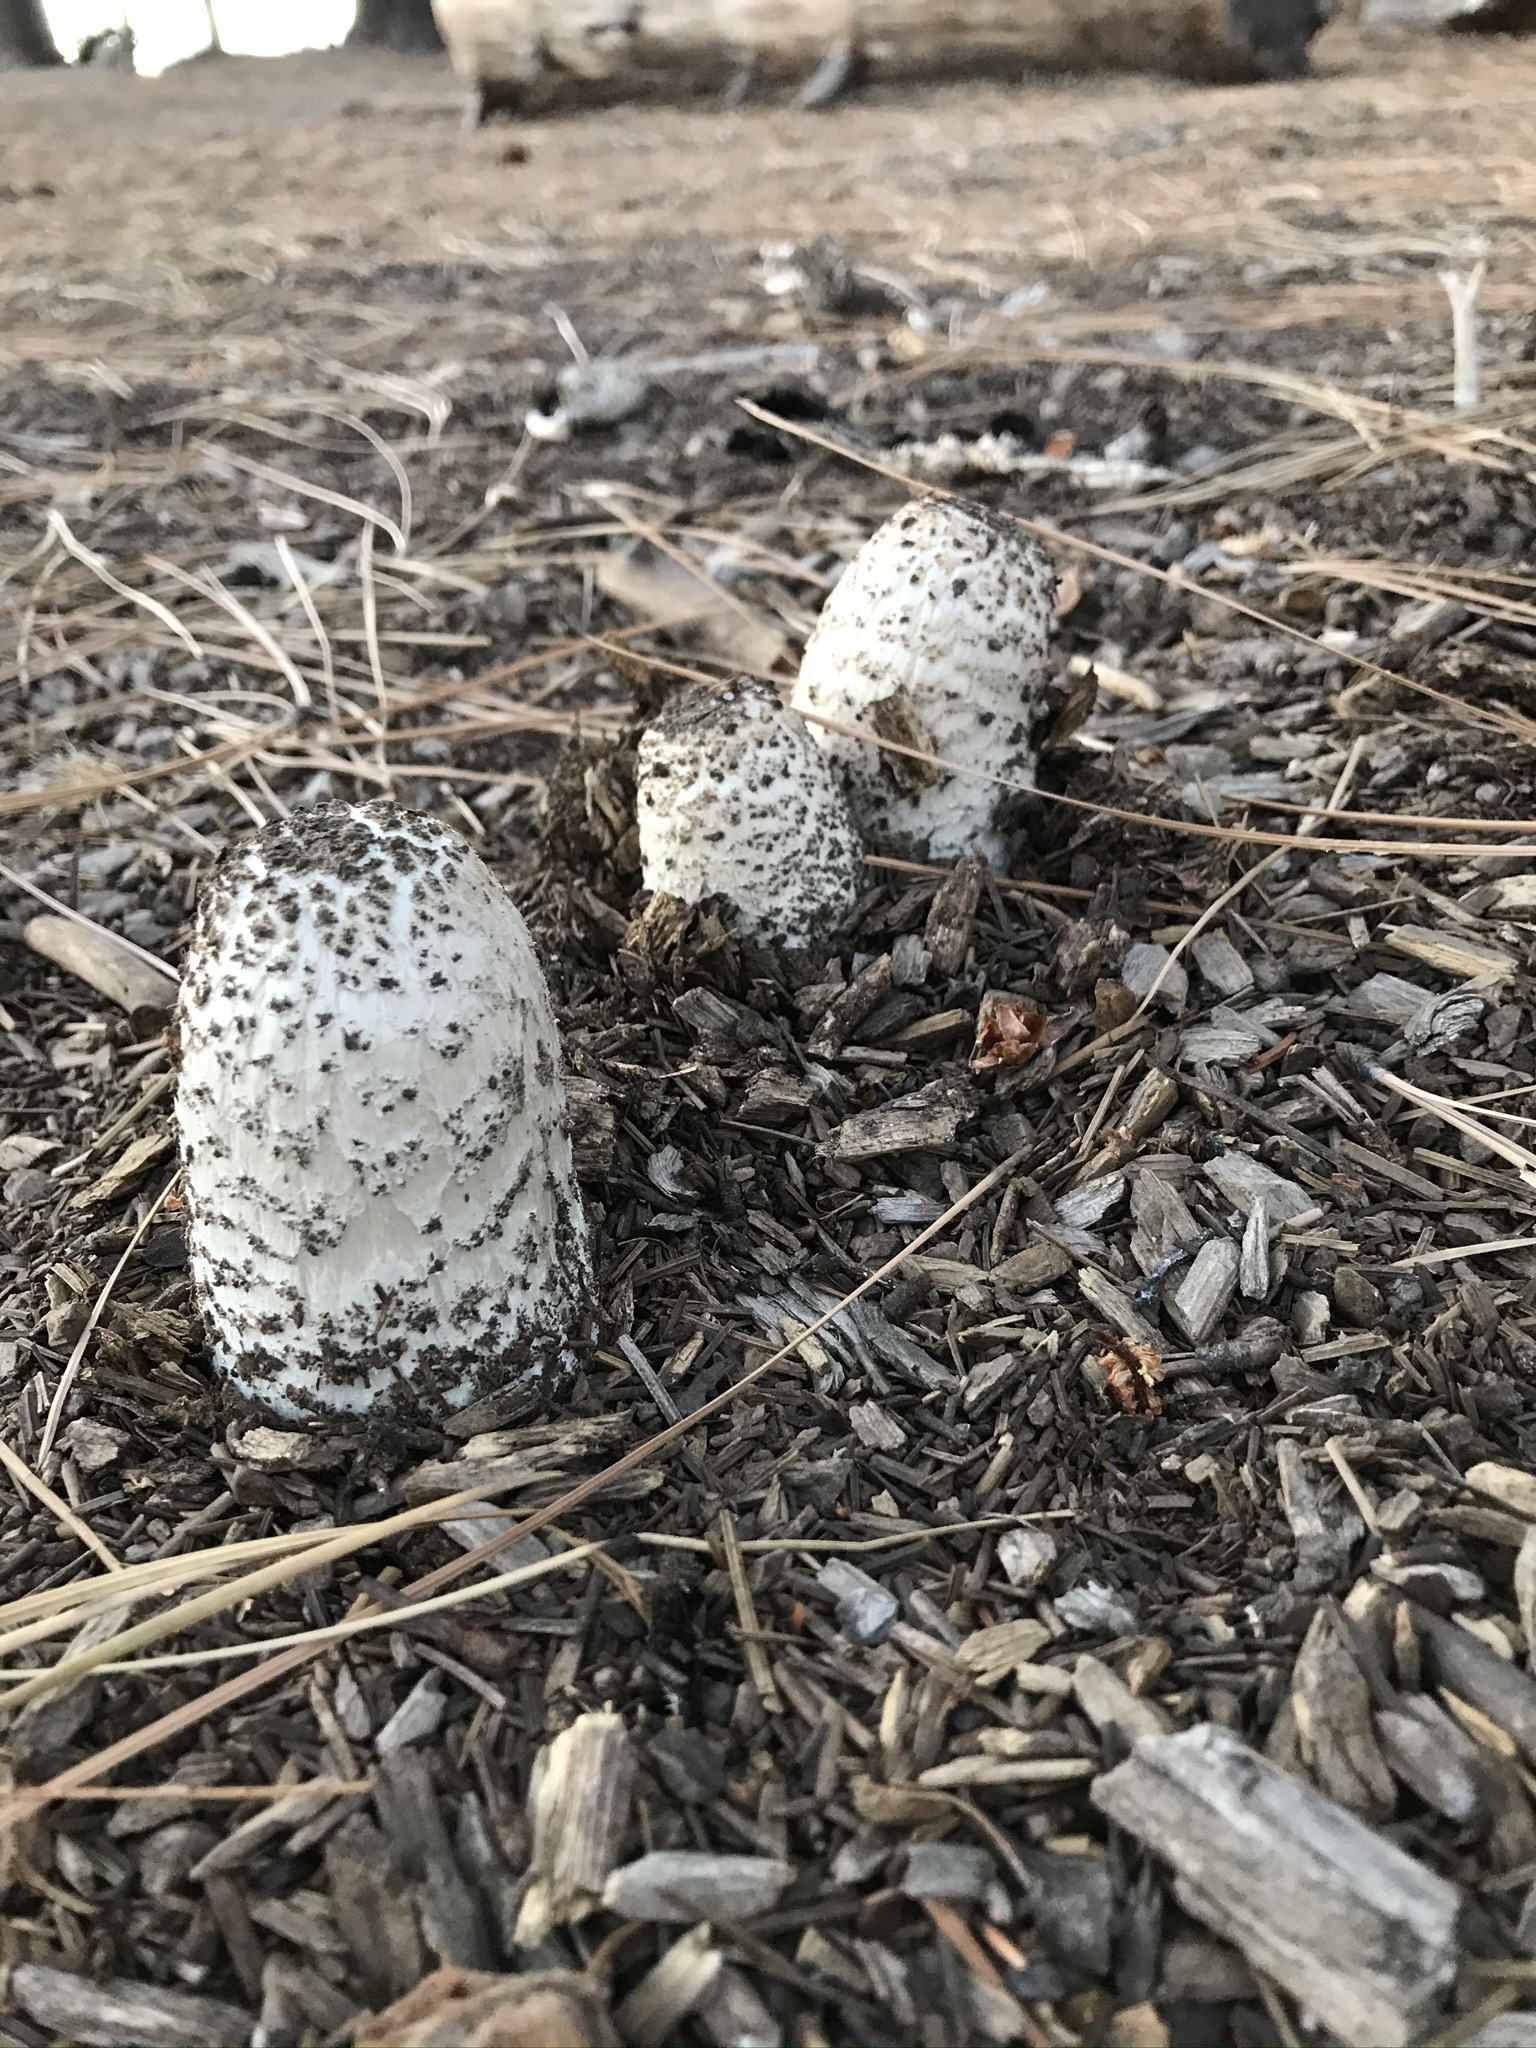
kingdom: Fungi
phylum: Basidiomycota
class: Agaricomycetes
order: Agaricales
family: Agaricaceae
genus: Coprinus
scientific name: Coprinus comatus
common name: Lawyer's wig
